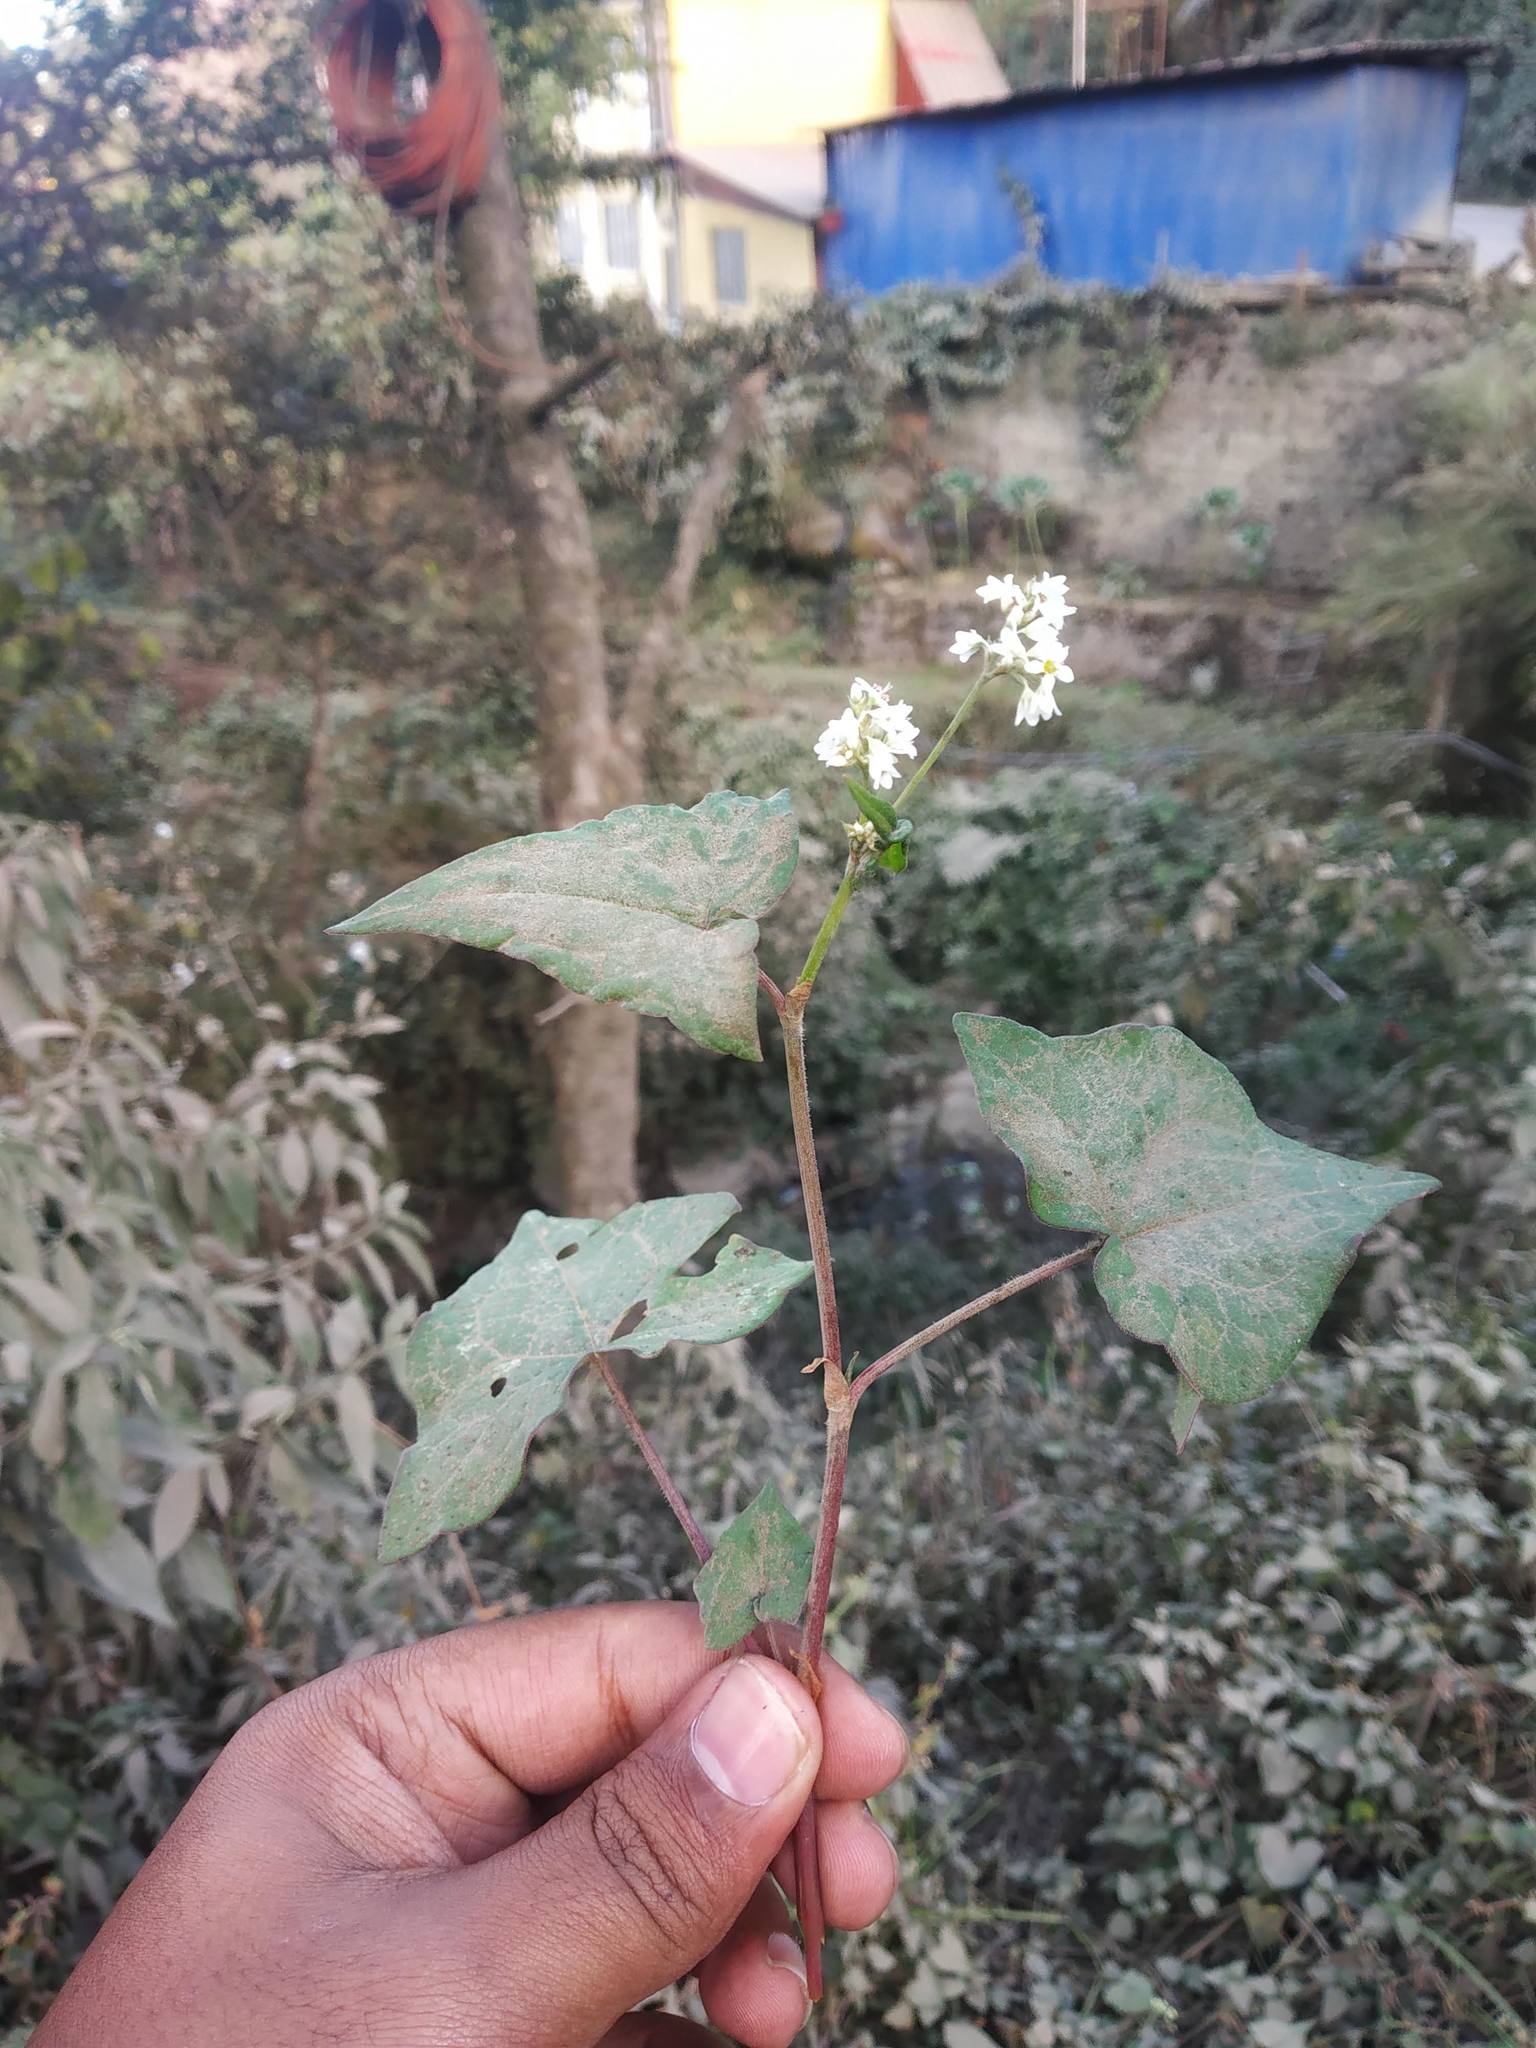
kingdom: Plantae
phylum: Tracheophyta
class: Magnoliopsida
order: Caryophyllales
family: Polygonaceae
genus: Fagopyrum
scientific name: Fagopyrum esculentum
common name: Buckwheat
